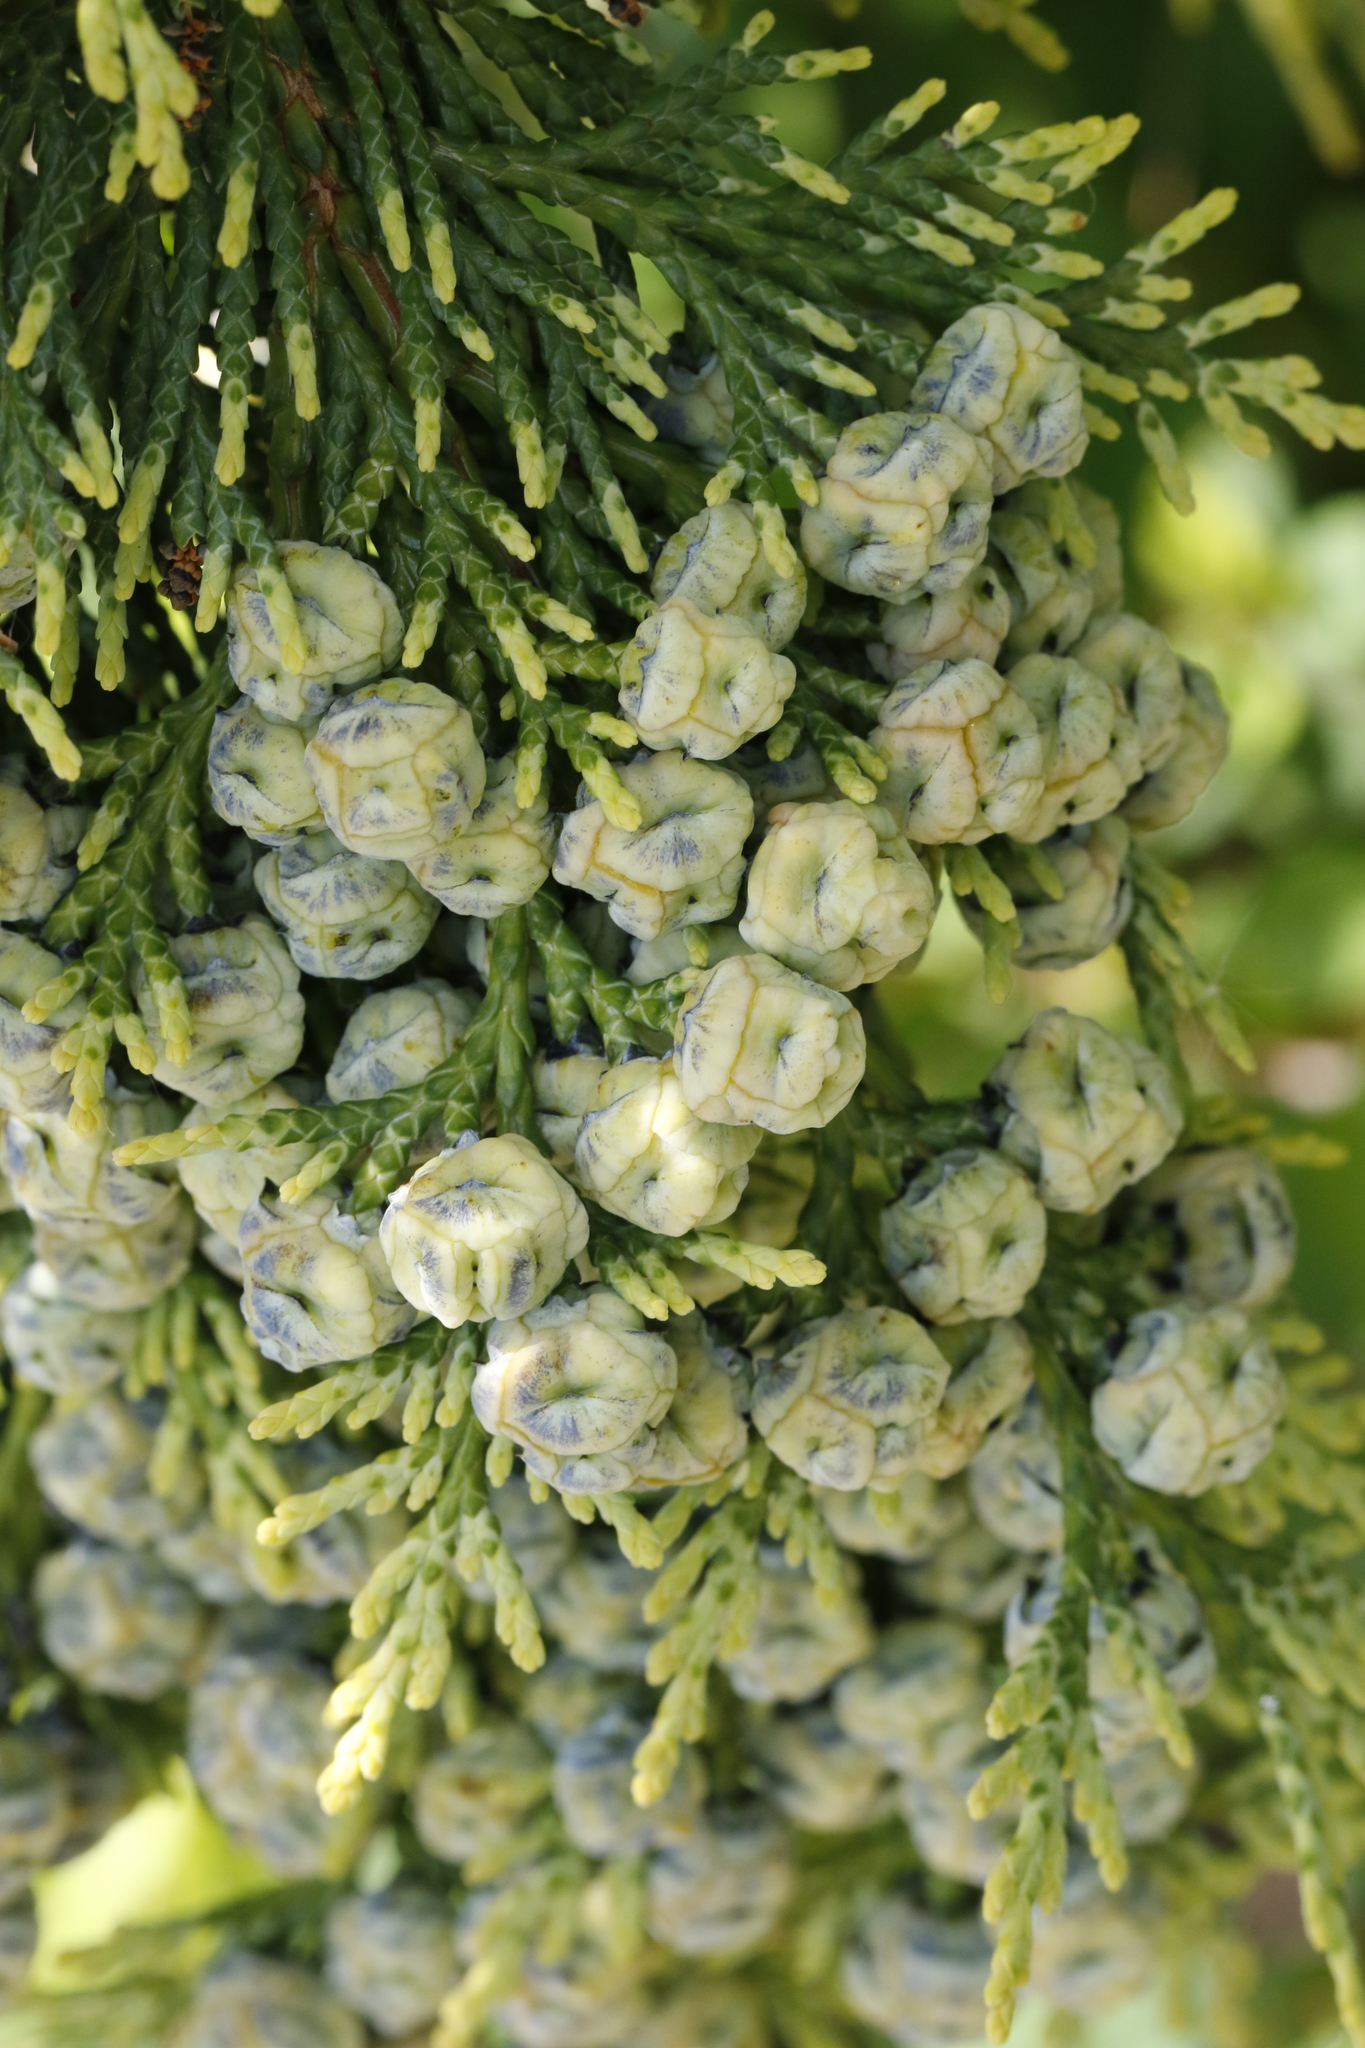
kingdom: Plantae
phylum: Tracheophyta
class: Pinopsida
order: Pinales
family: Cupressaceae
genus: Chamaecyparis
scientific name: Chamaecyparis lawsoniana
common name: Lawson's cypress
